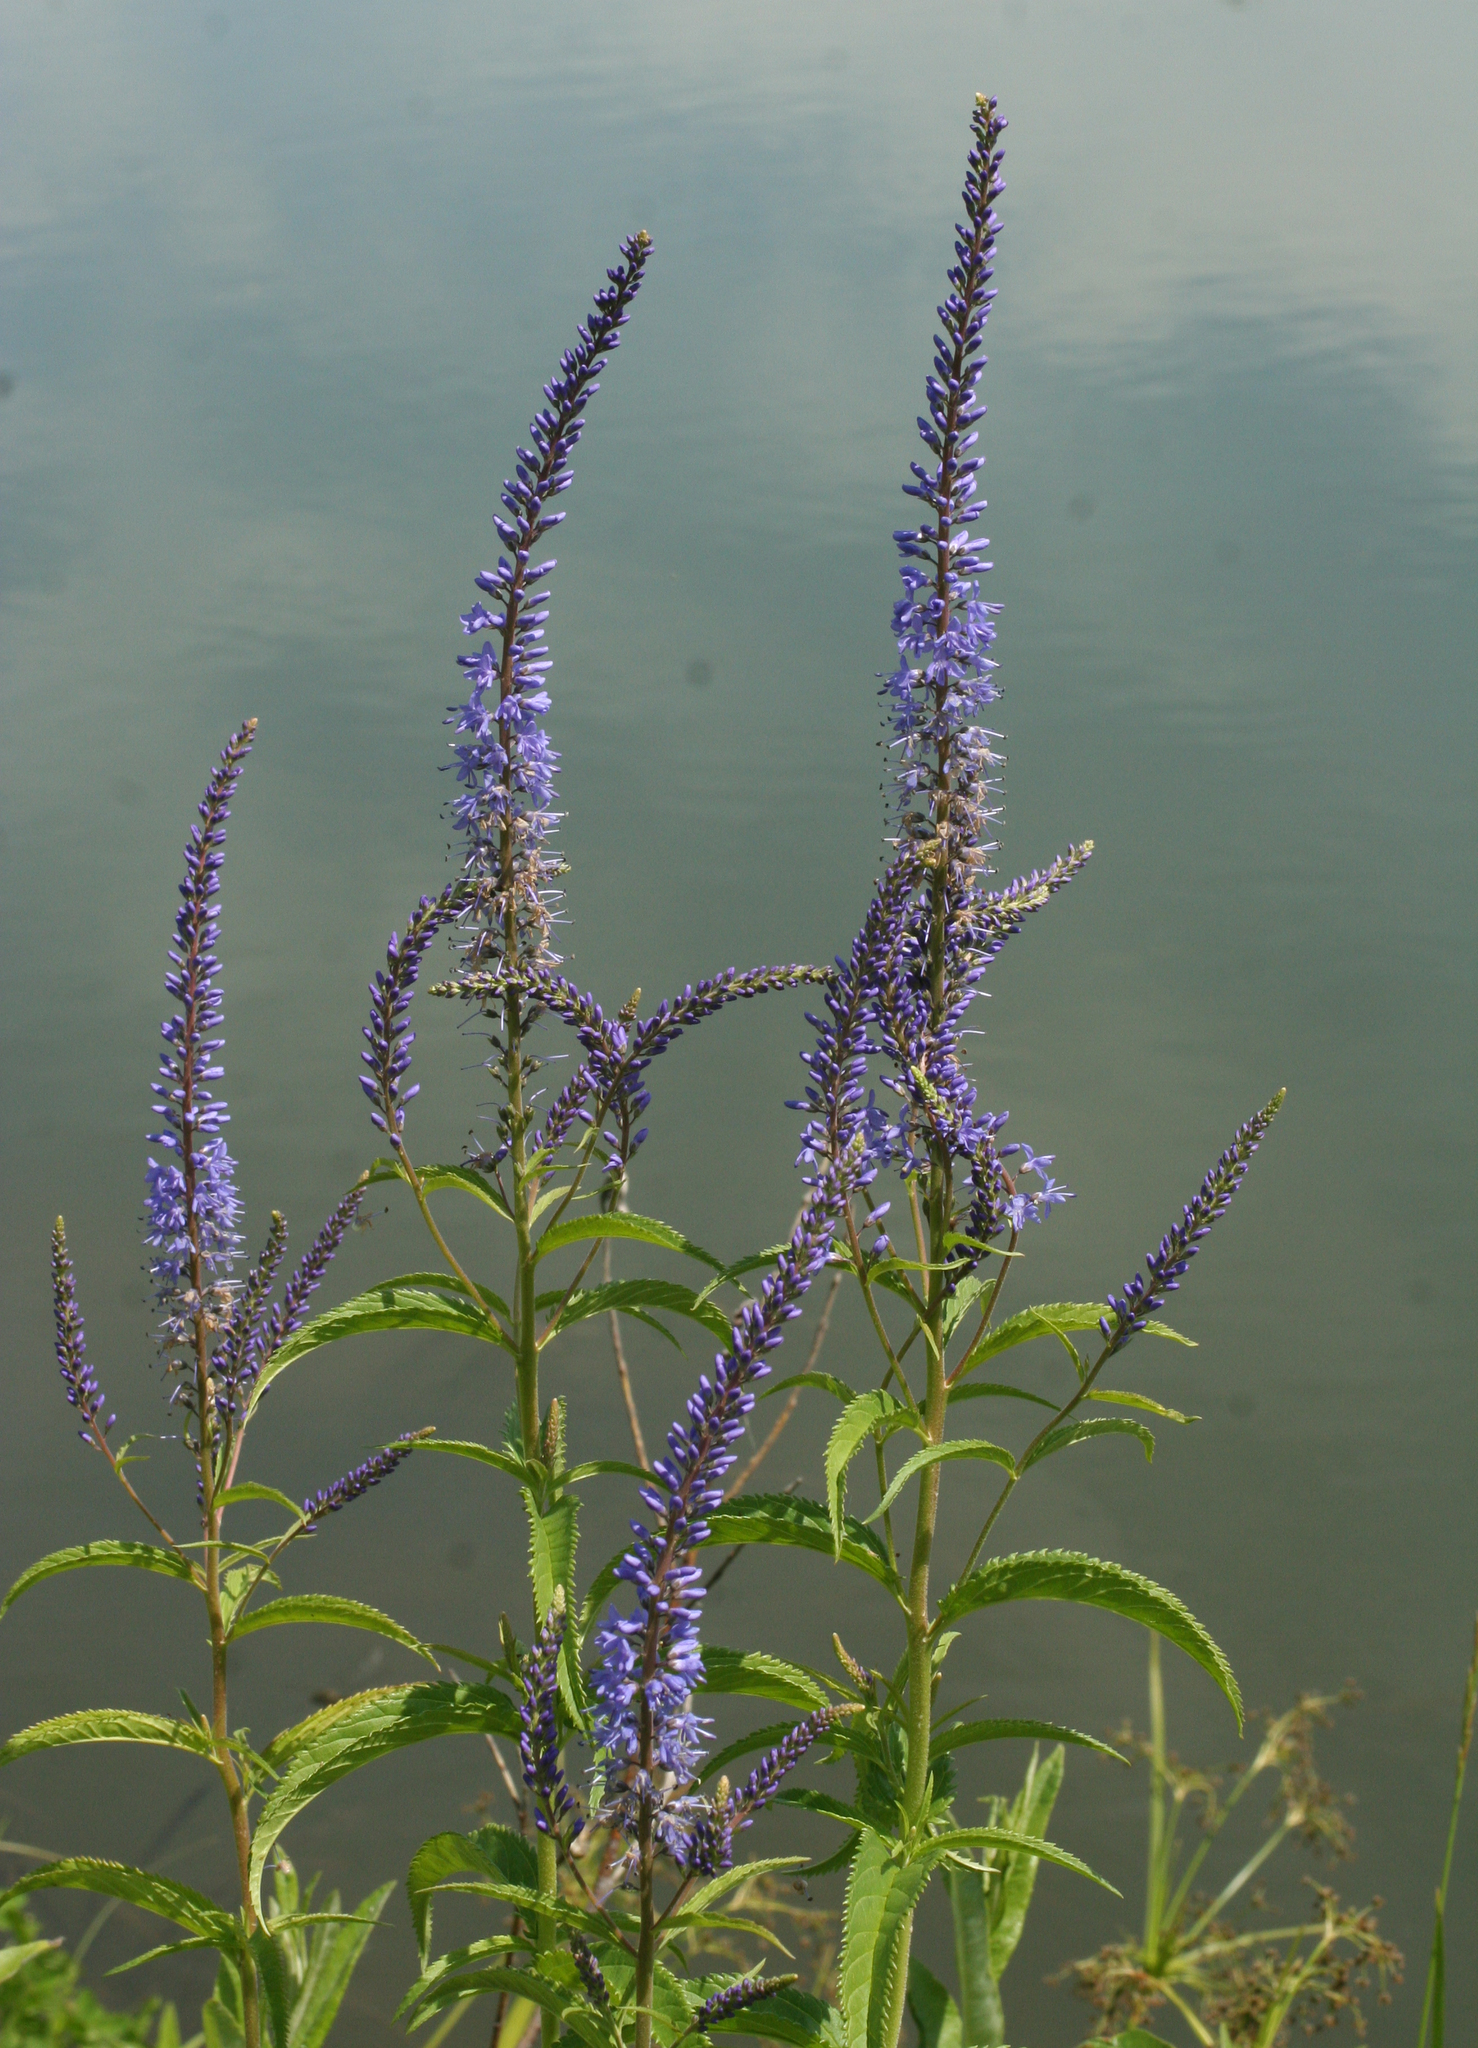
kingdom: Plantae
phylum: Tracheophyta
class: Magnoliopsida
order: Lamiales
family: Plantaginaceae
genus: Veronica
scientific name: Veronica longifolia
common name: Garden speedwell
